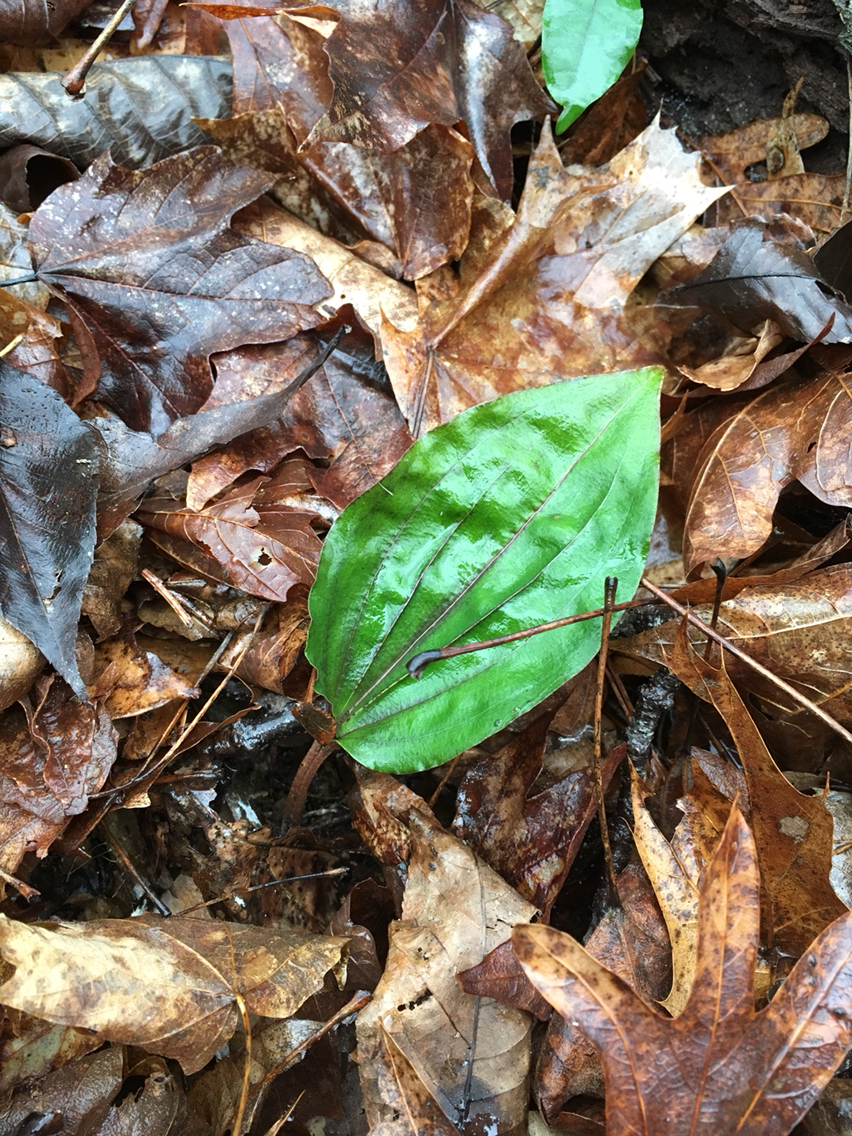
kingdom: Plantae
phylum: Tracheophyta
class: Liliopsida
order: Asparagales
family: Orchidaceae
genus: Tipularia
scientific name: Tipularia discolor
